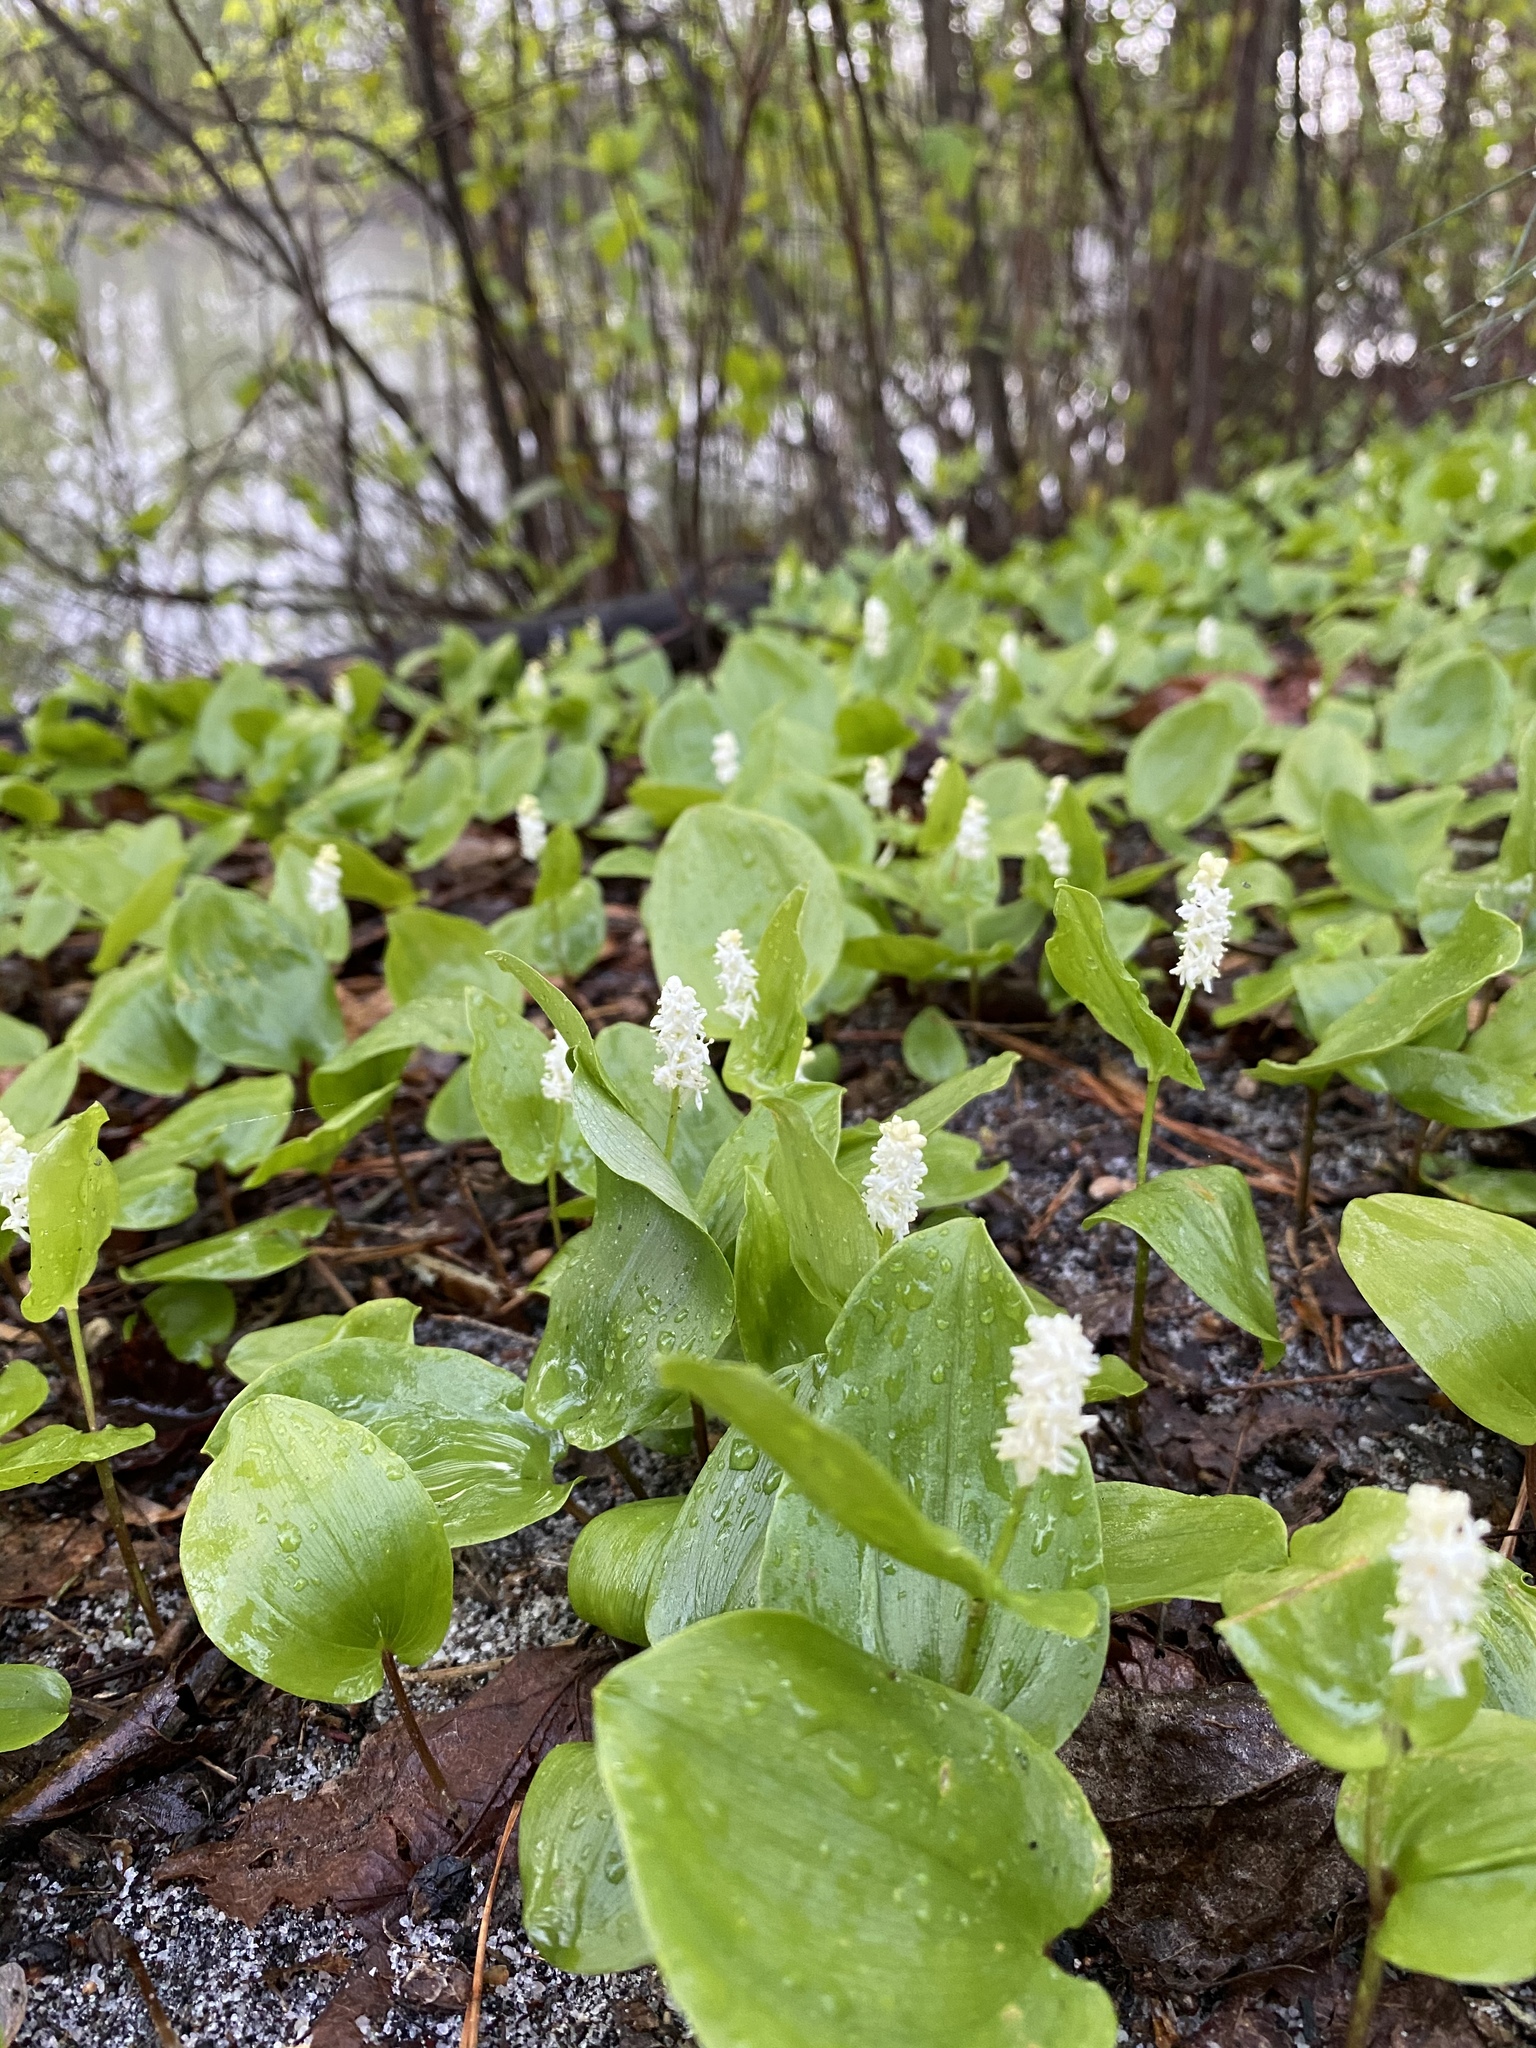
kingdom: Plantae
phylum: Tracheophyta
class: Liliopsida
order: Asparagales
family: Asparagaceae
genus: Maianthemum
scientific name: Maianthemum canadense
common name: False lily-of-the-valley
